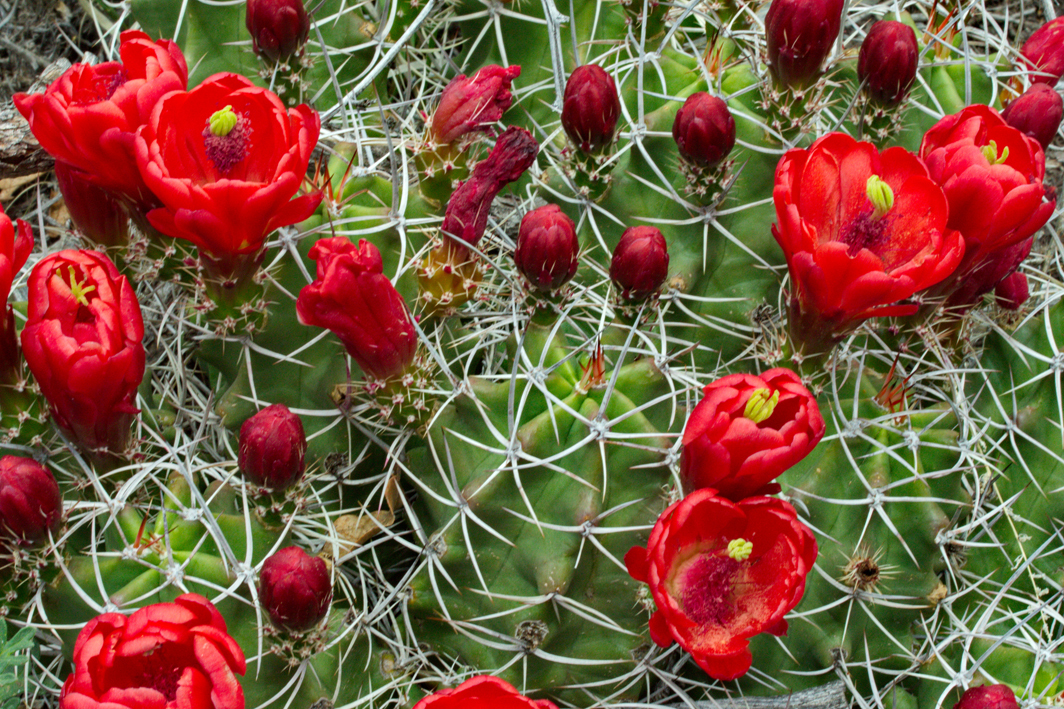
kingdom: Plantae
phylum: Tracheophyta
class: Magnoliopsida
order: Caryophyllales
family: Cactaceae
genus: Echinocereus
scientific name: Echinocereus triglochidiatus
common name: Claretcup hedgehog
